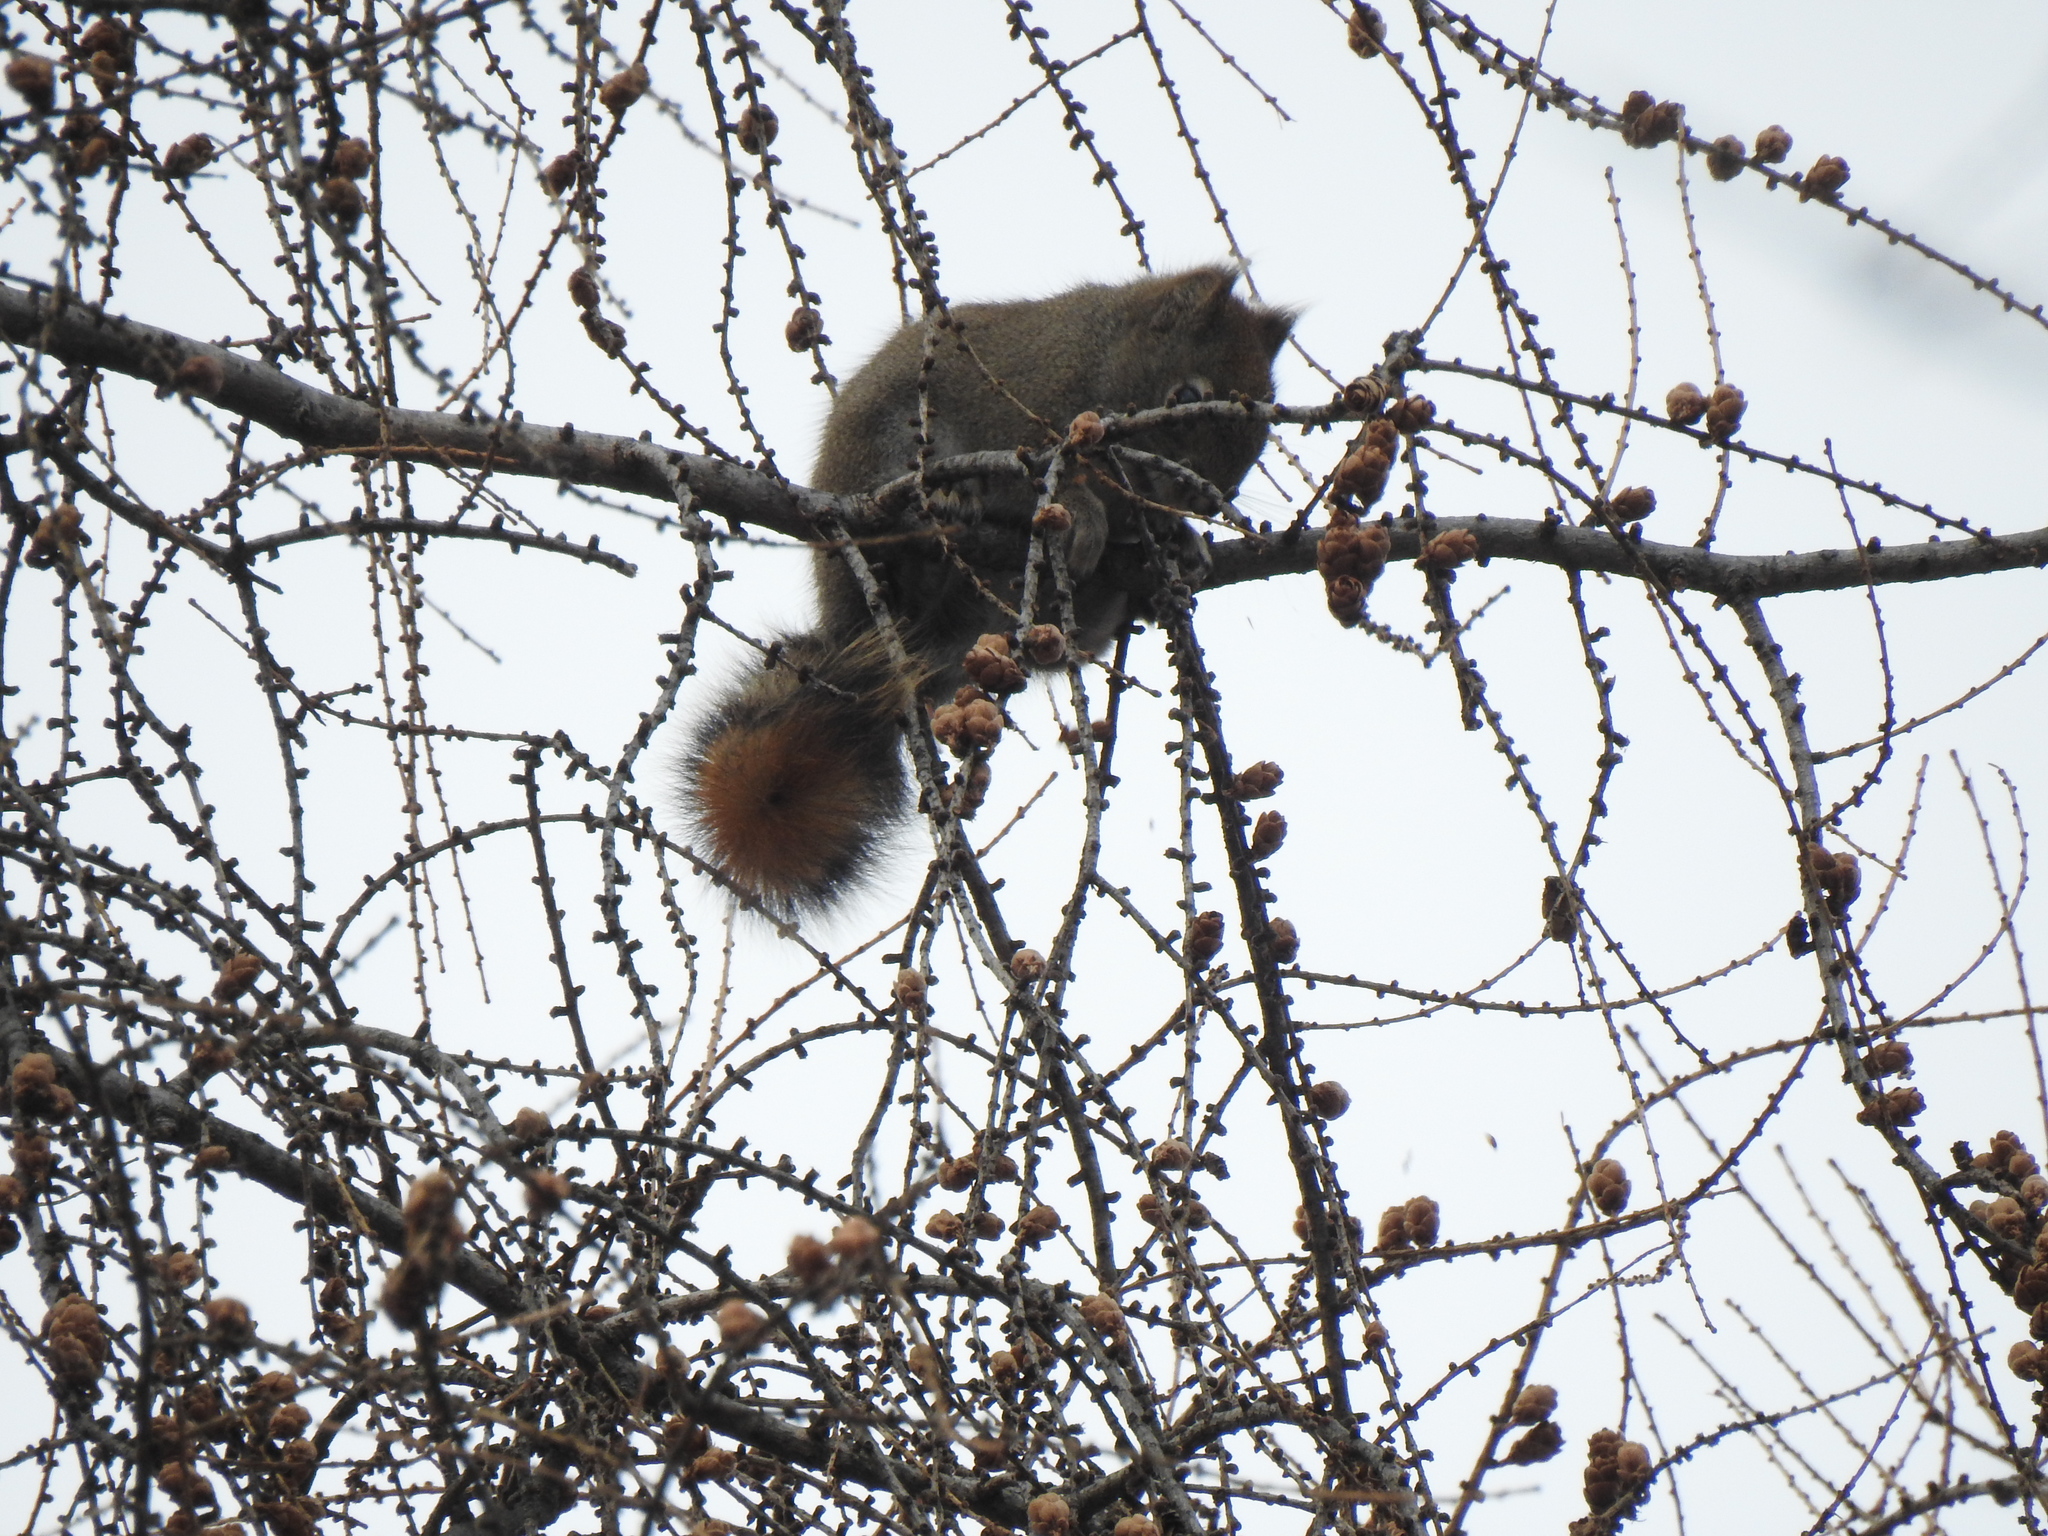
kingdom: Animalia
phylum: Chordata
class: Mammalia
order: Rodentia
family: Sciuridae
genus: Tamiasciurus
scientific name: Tamiasciurus hudsonicus
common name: Red squirrel
